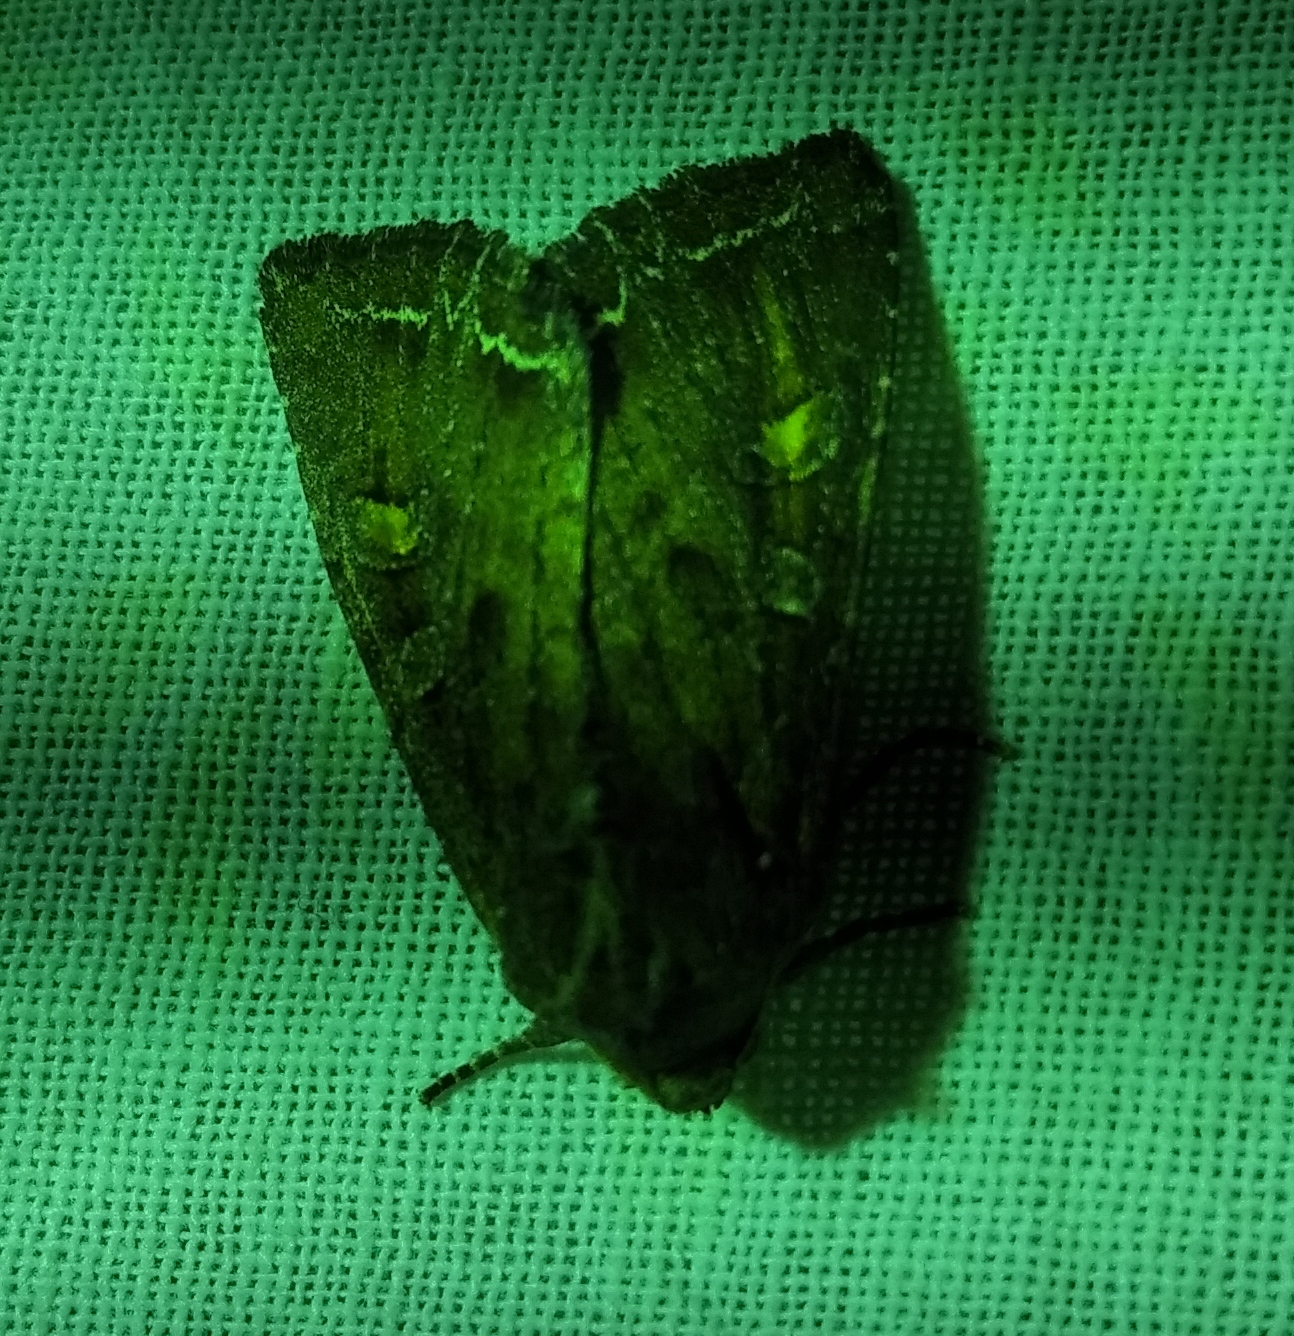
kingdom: Animalia
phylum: Arthropoda
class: Insecta
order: Lepidoptera
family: Noctuidae
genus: Lacanobia
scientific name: Lacanobia oleracea
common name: Bright-line brown-eye
